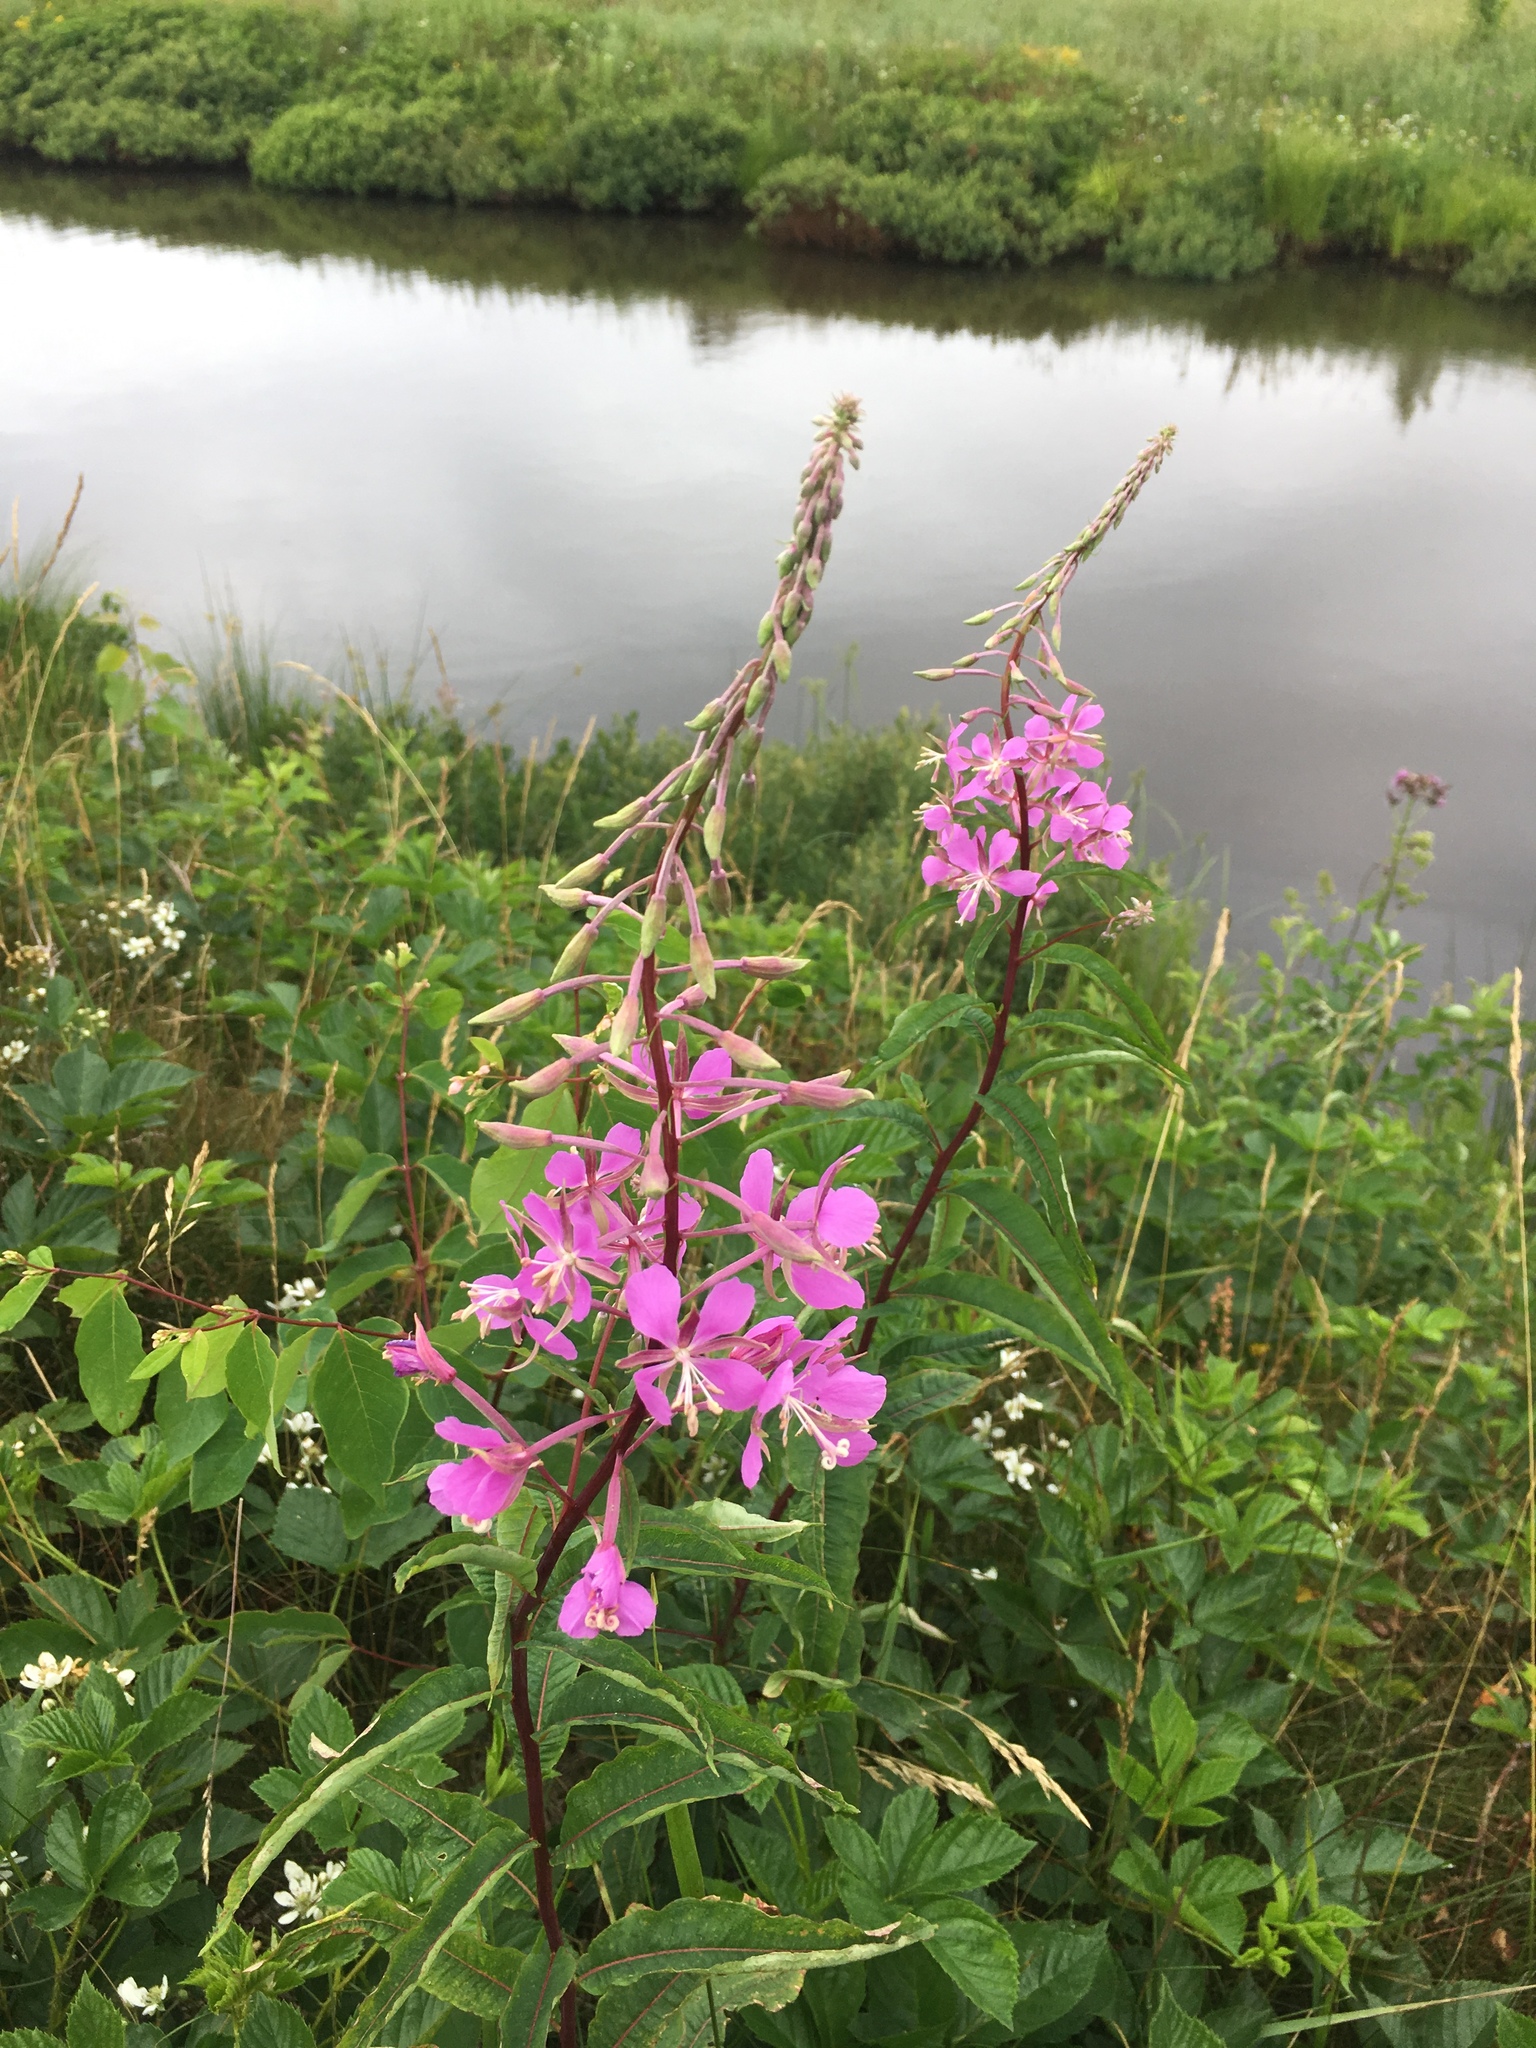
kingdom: Plantae
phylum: Tracheophyta
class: Magnoliopsida
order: Myrtales
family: Onagraceae
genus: Chamaenerion
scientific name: Chamaenerion angustifolium
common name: Fireweed
